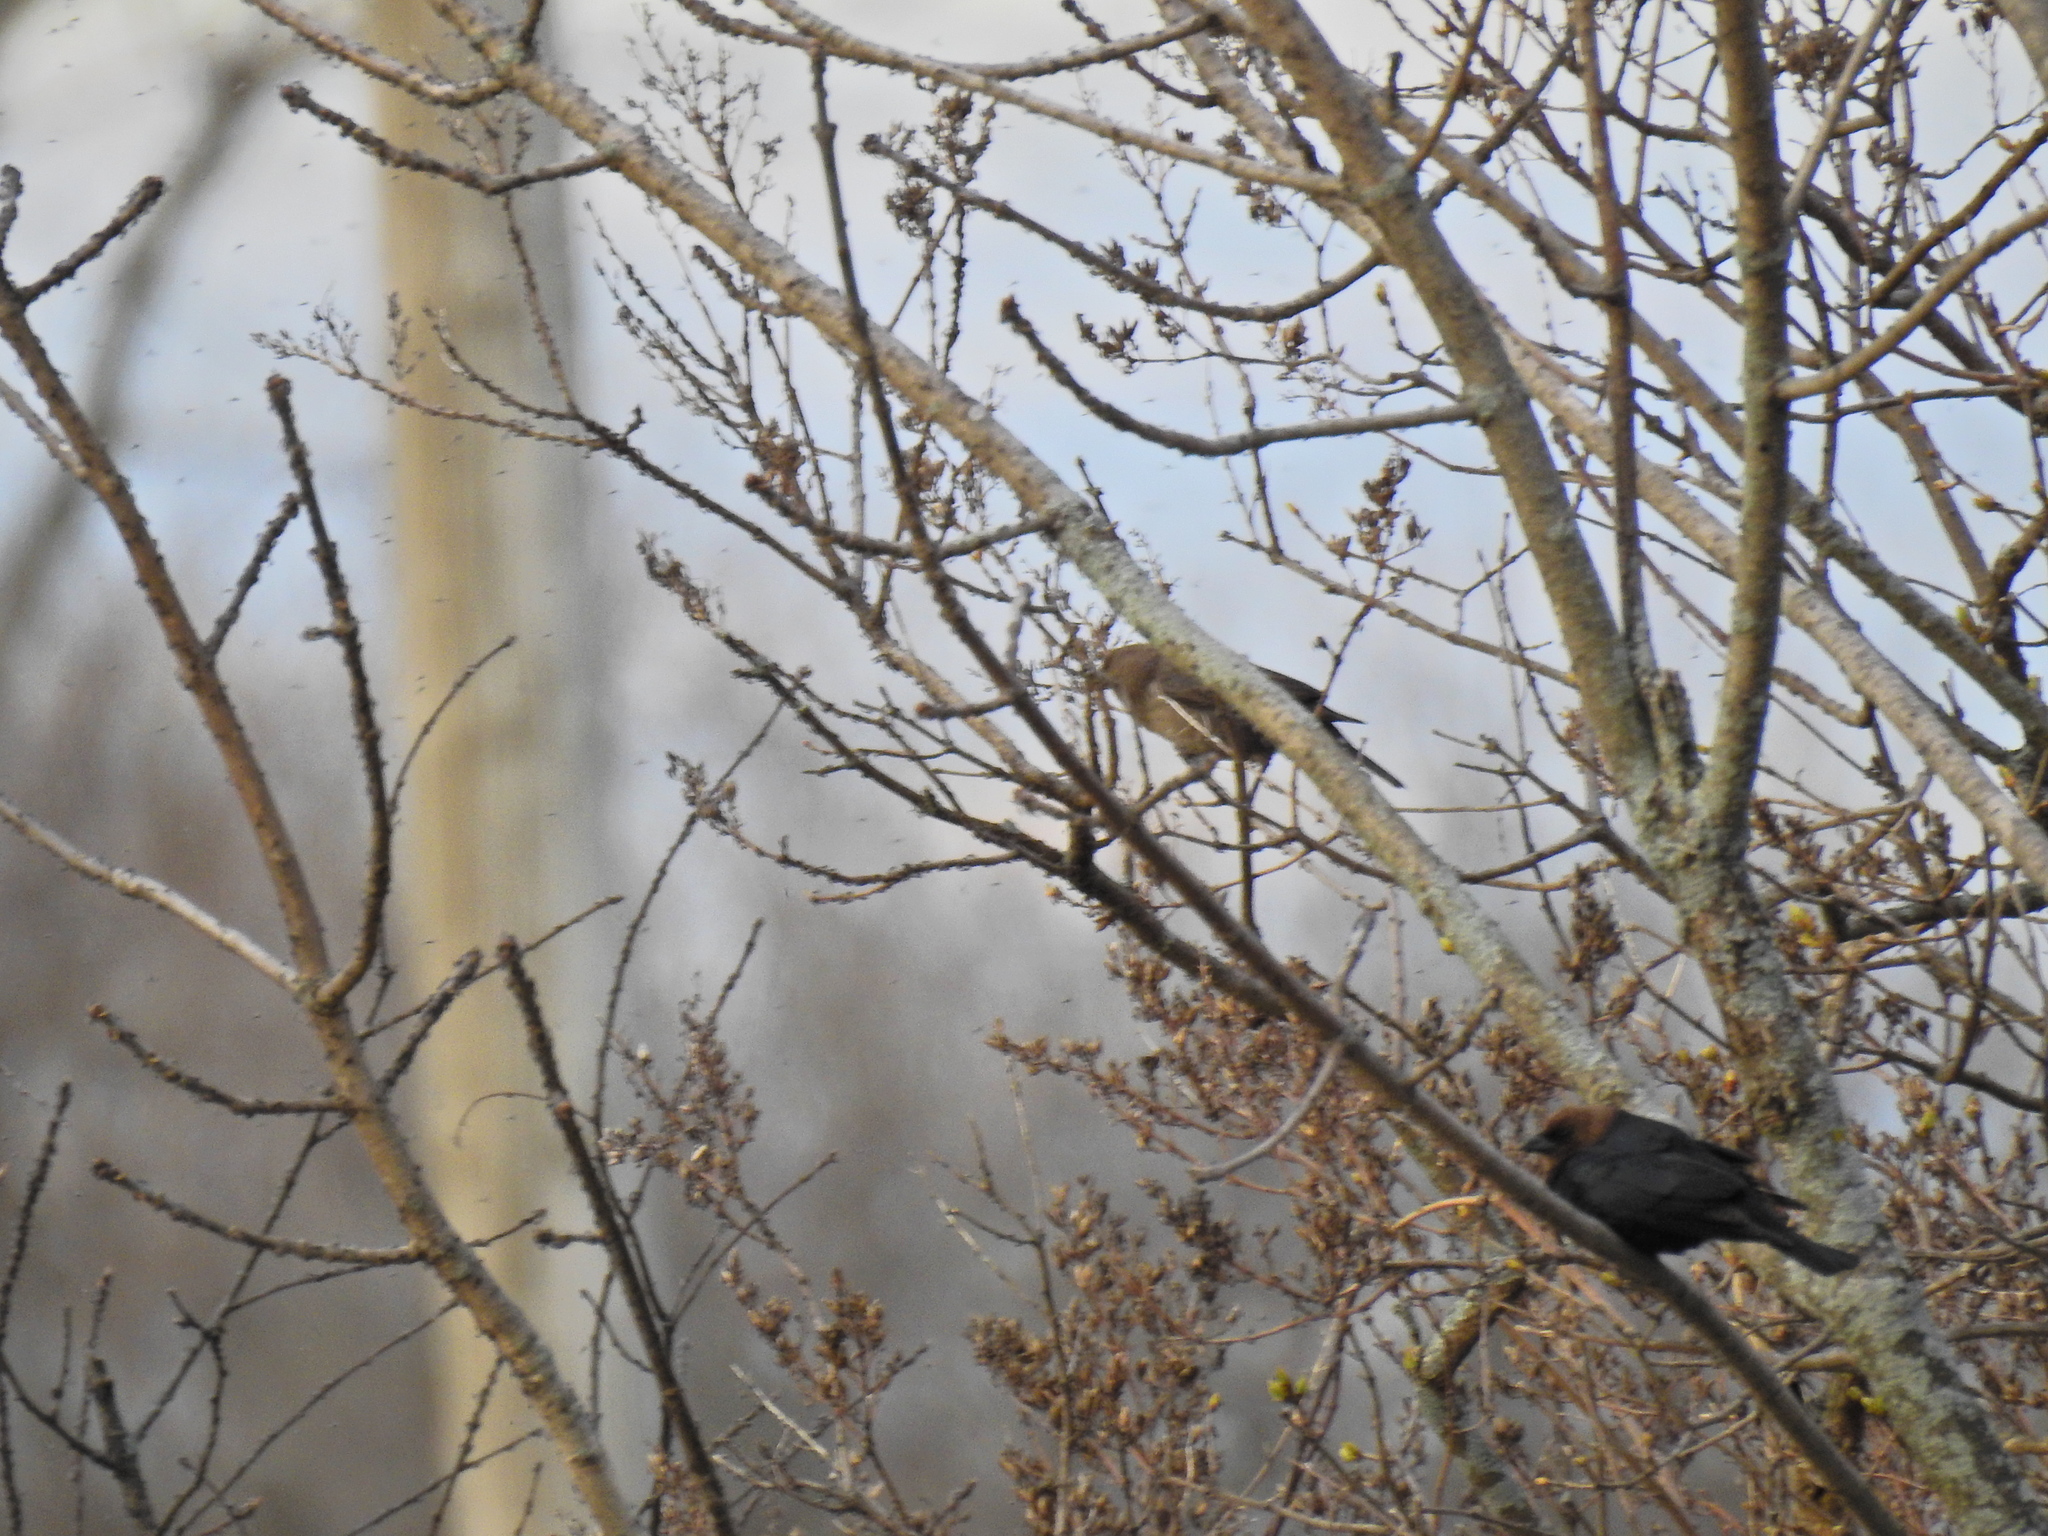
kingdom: Animalia
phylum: Chordata
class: Aves
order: Passeriformes
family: Icteridae
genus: Molothrus
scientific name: Molothrus ater
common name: Brown-headed cowbird
